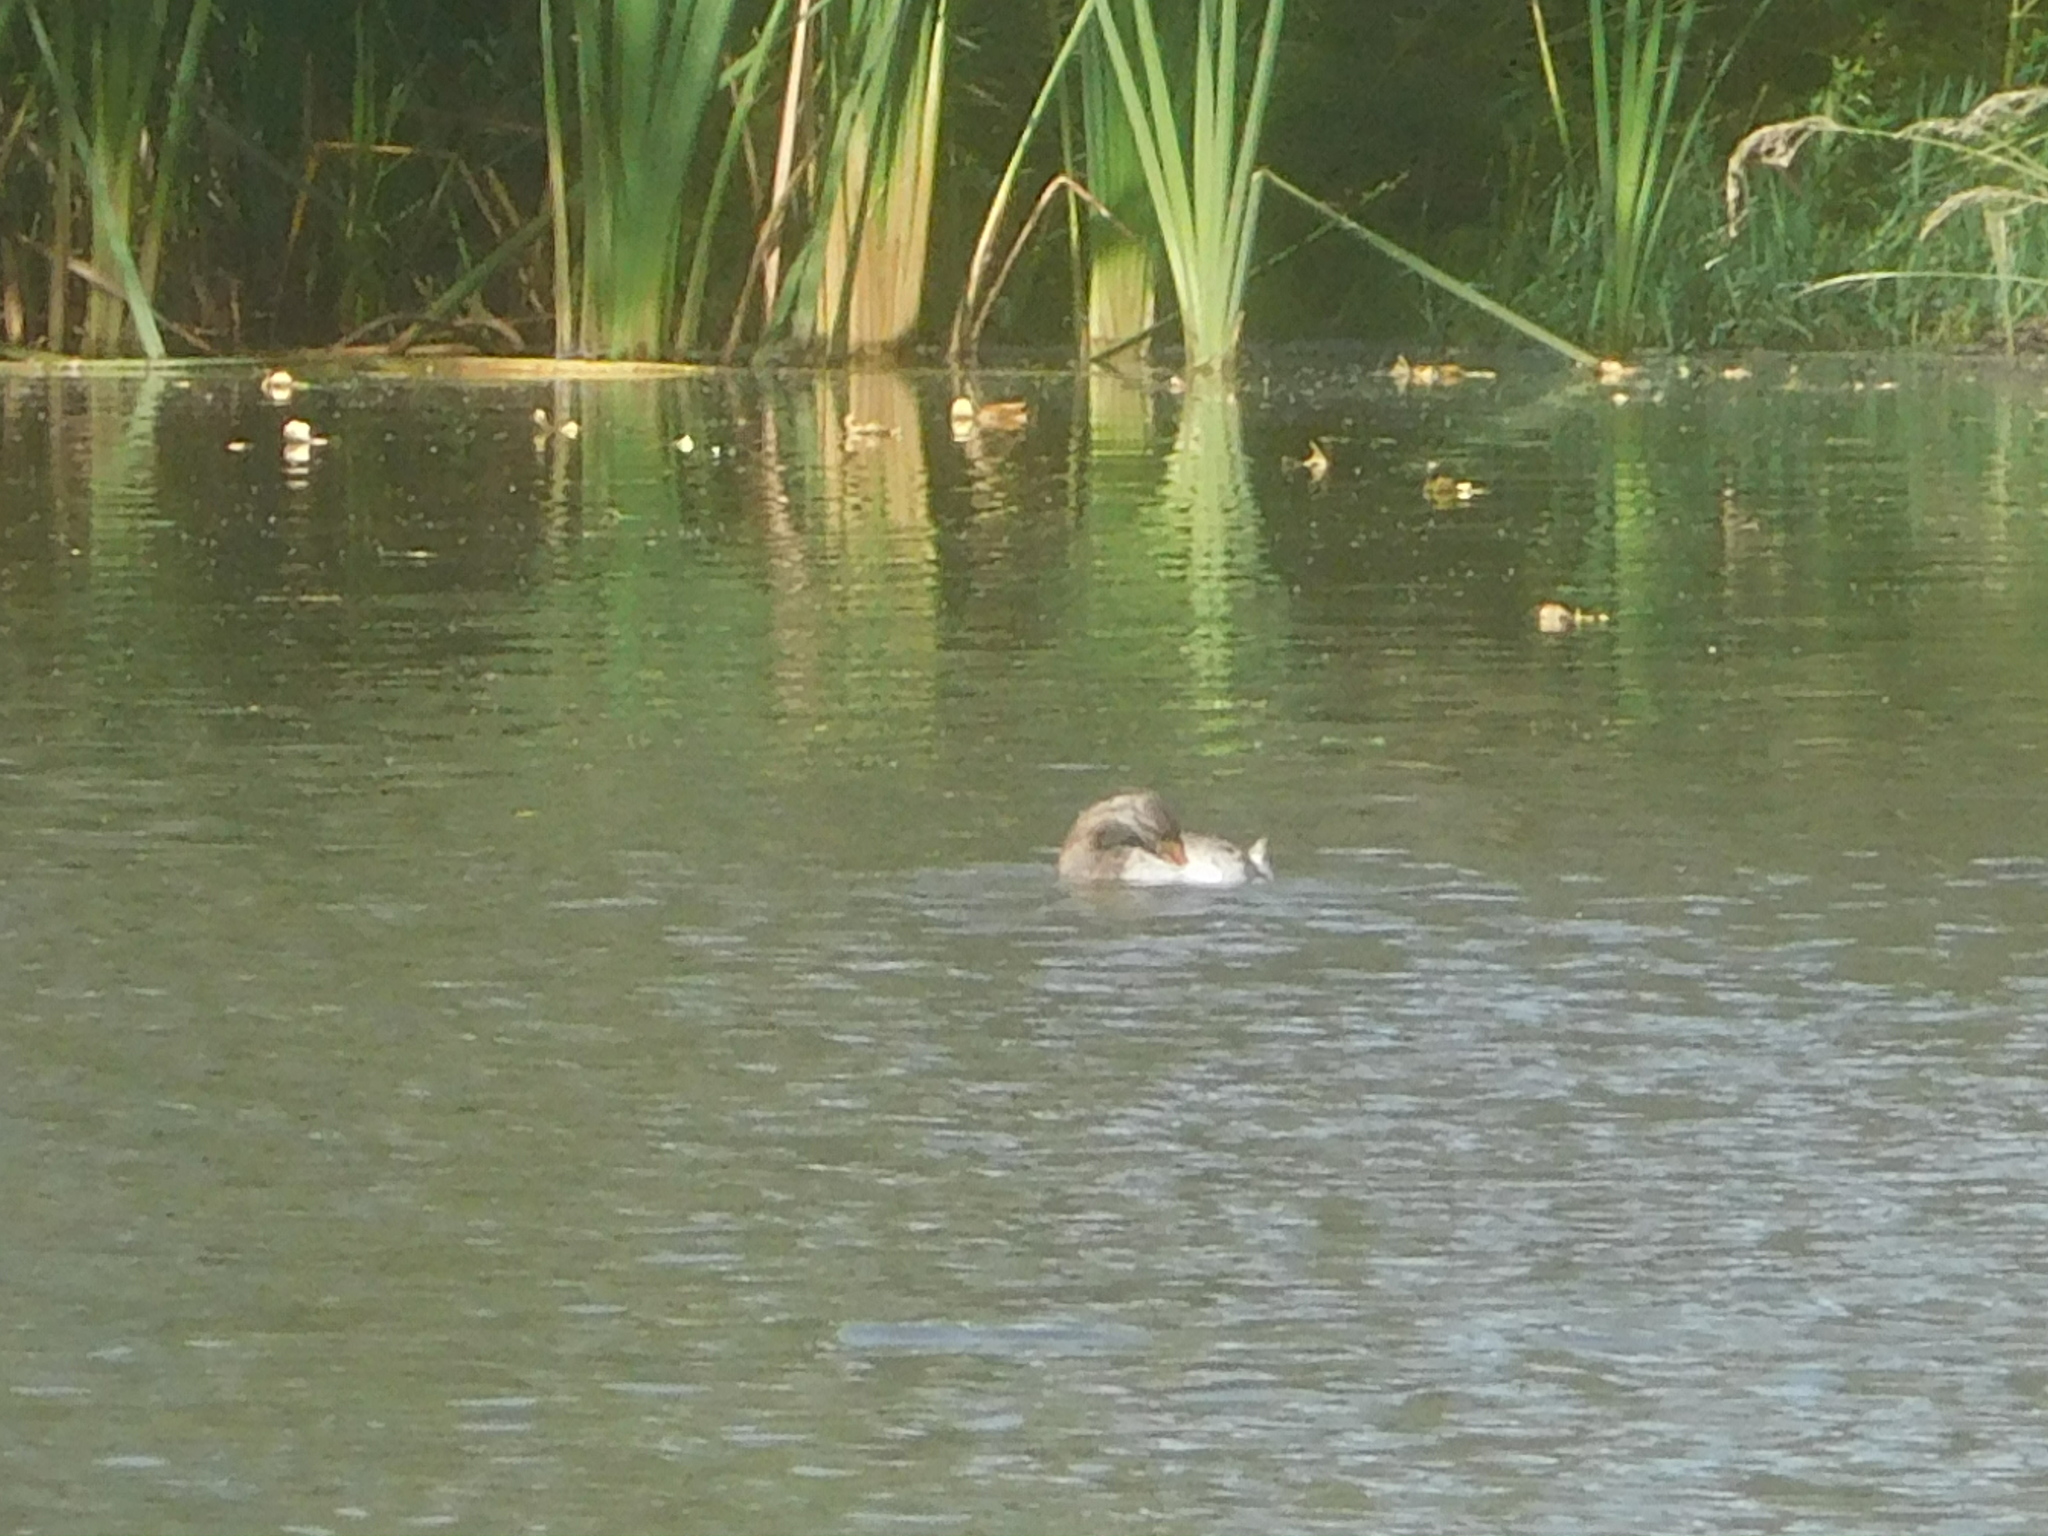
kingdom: Animalia
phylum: Chordata
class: Aves
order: Podicipediformes
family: Podicipedidae
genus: Podilymbus
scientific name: Podilymbus podiceps
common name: Pied-billed grebe
